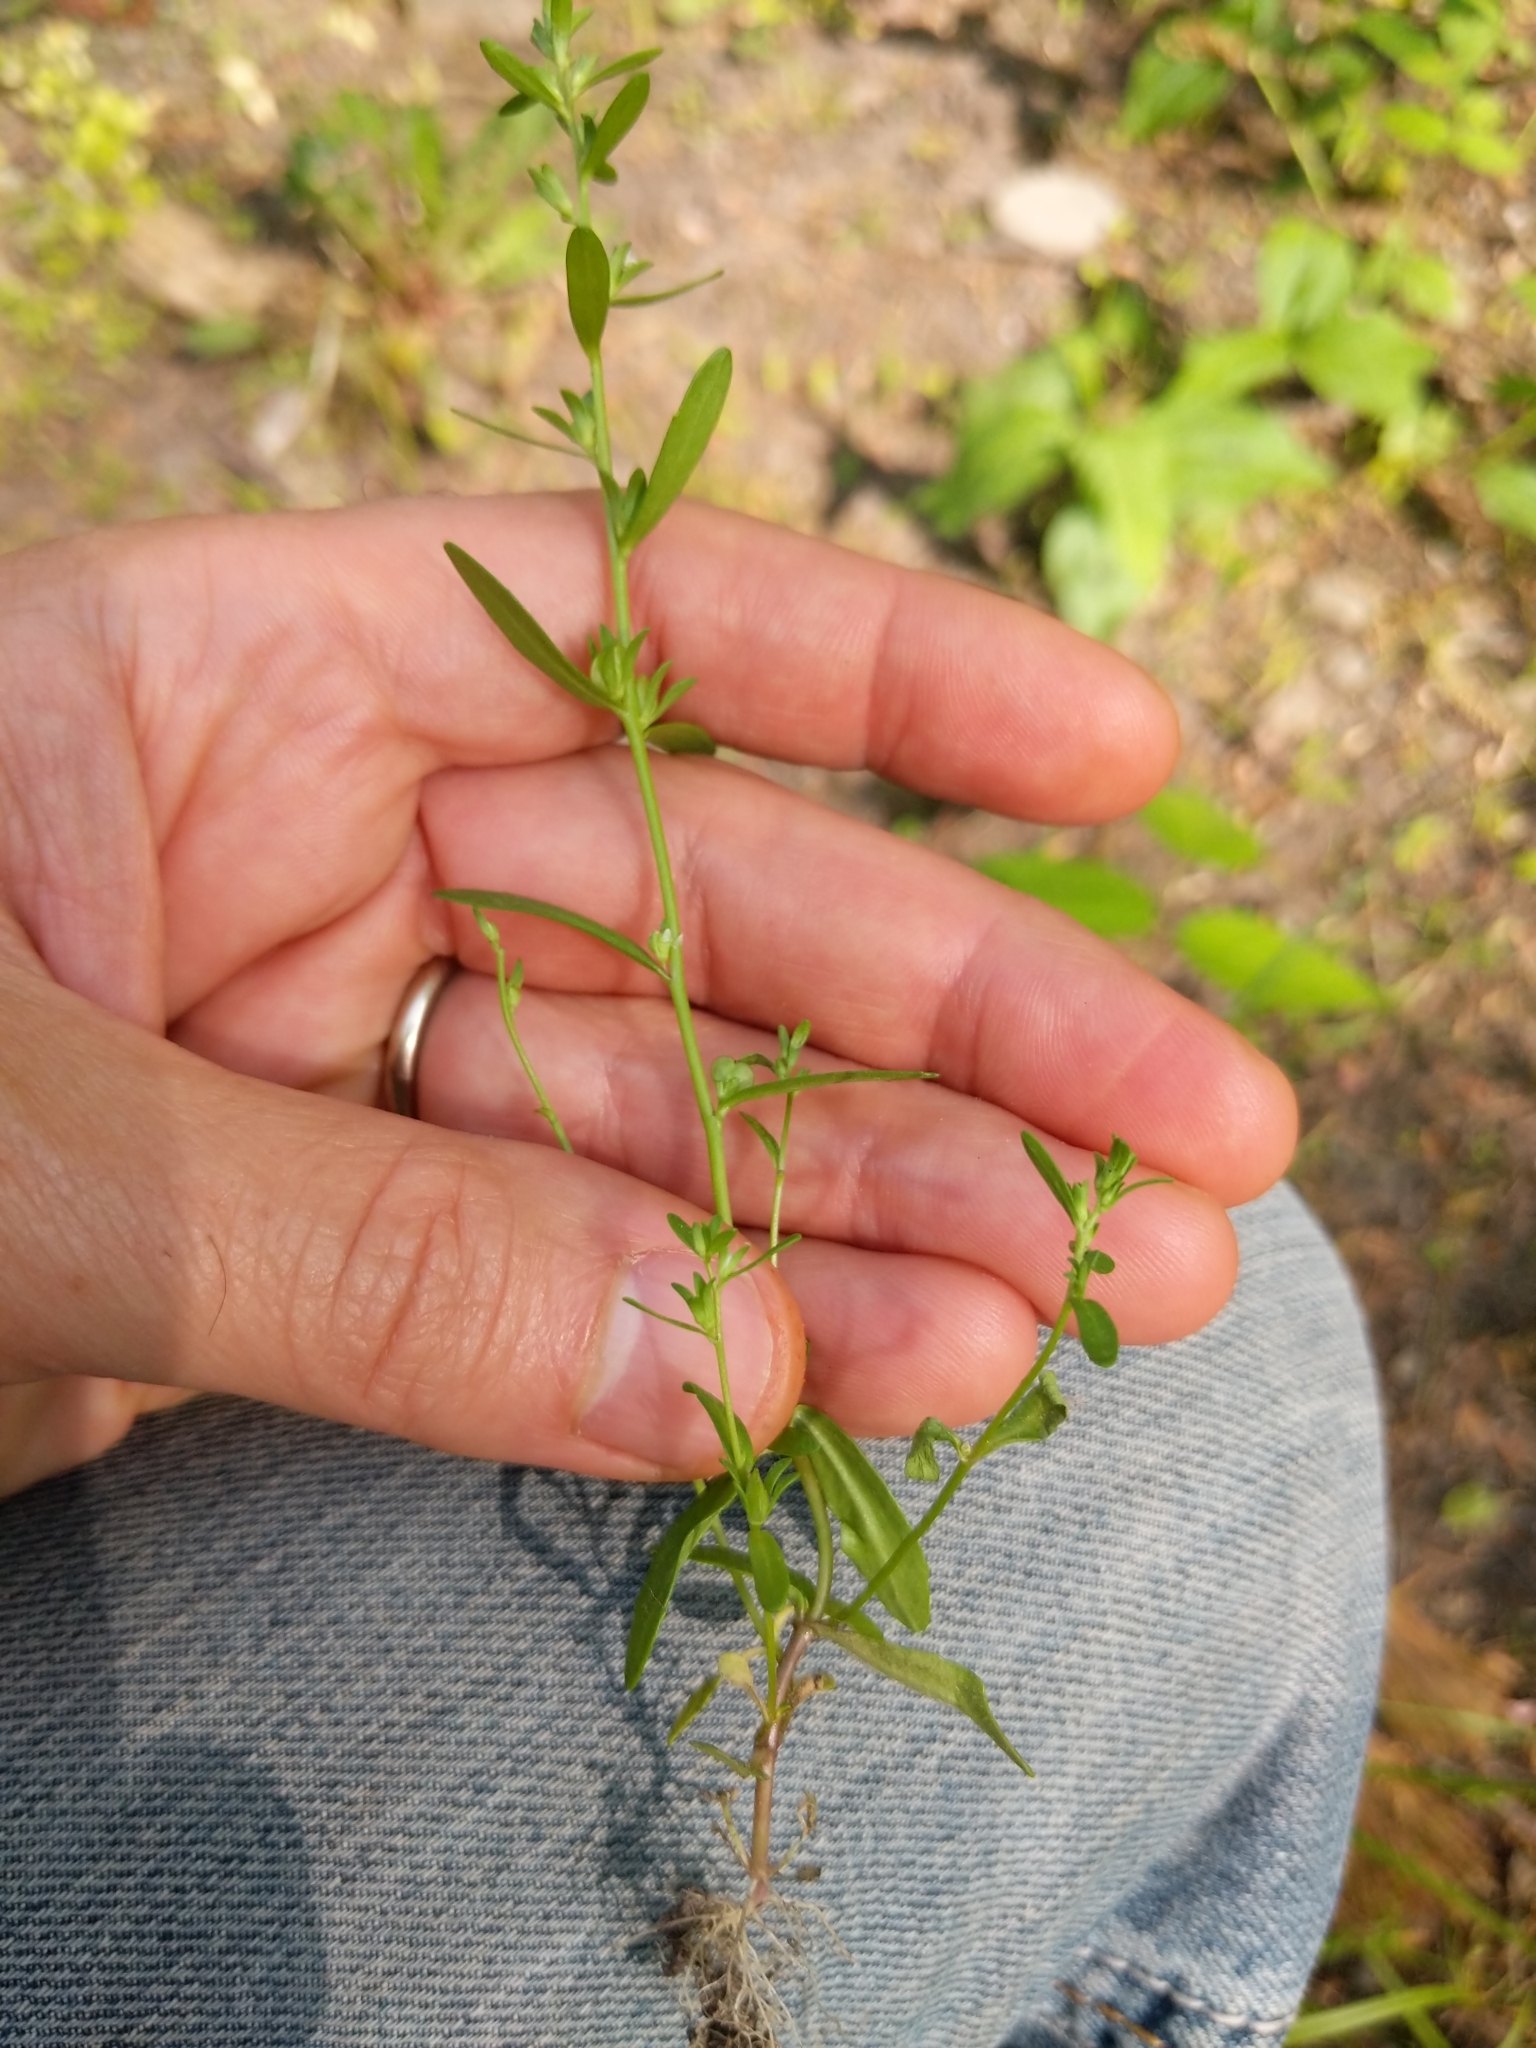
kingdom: Plantae
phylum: Tracheophyta
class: Magnoliopsida
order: Lamiales
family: Plantaginaceae
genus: Veronica
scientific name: Veronica peregrina
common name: Neckweed
